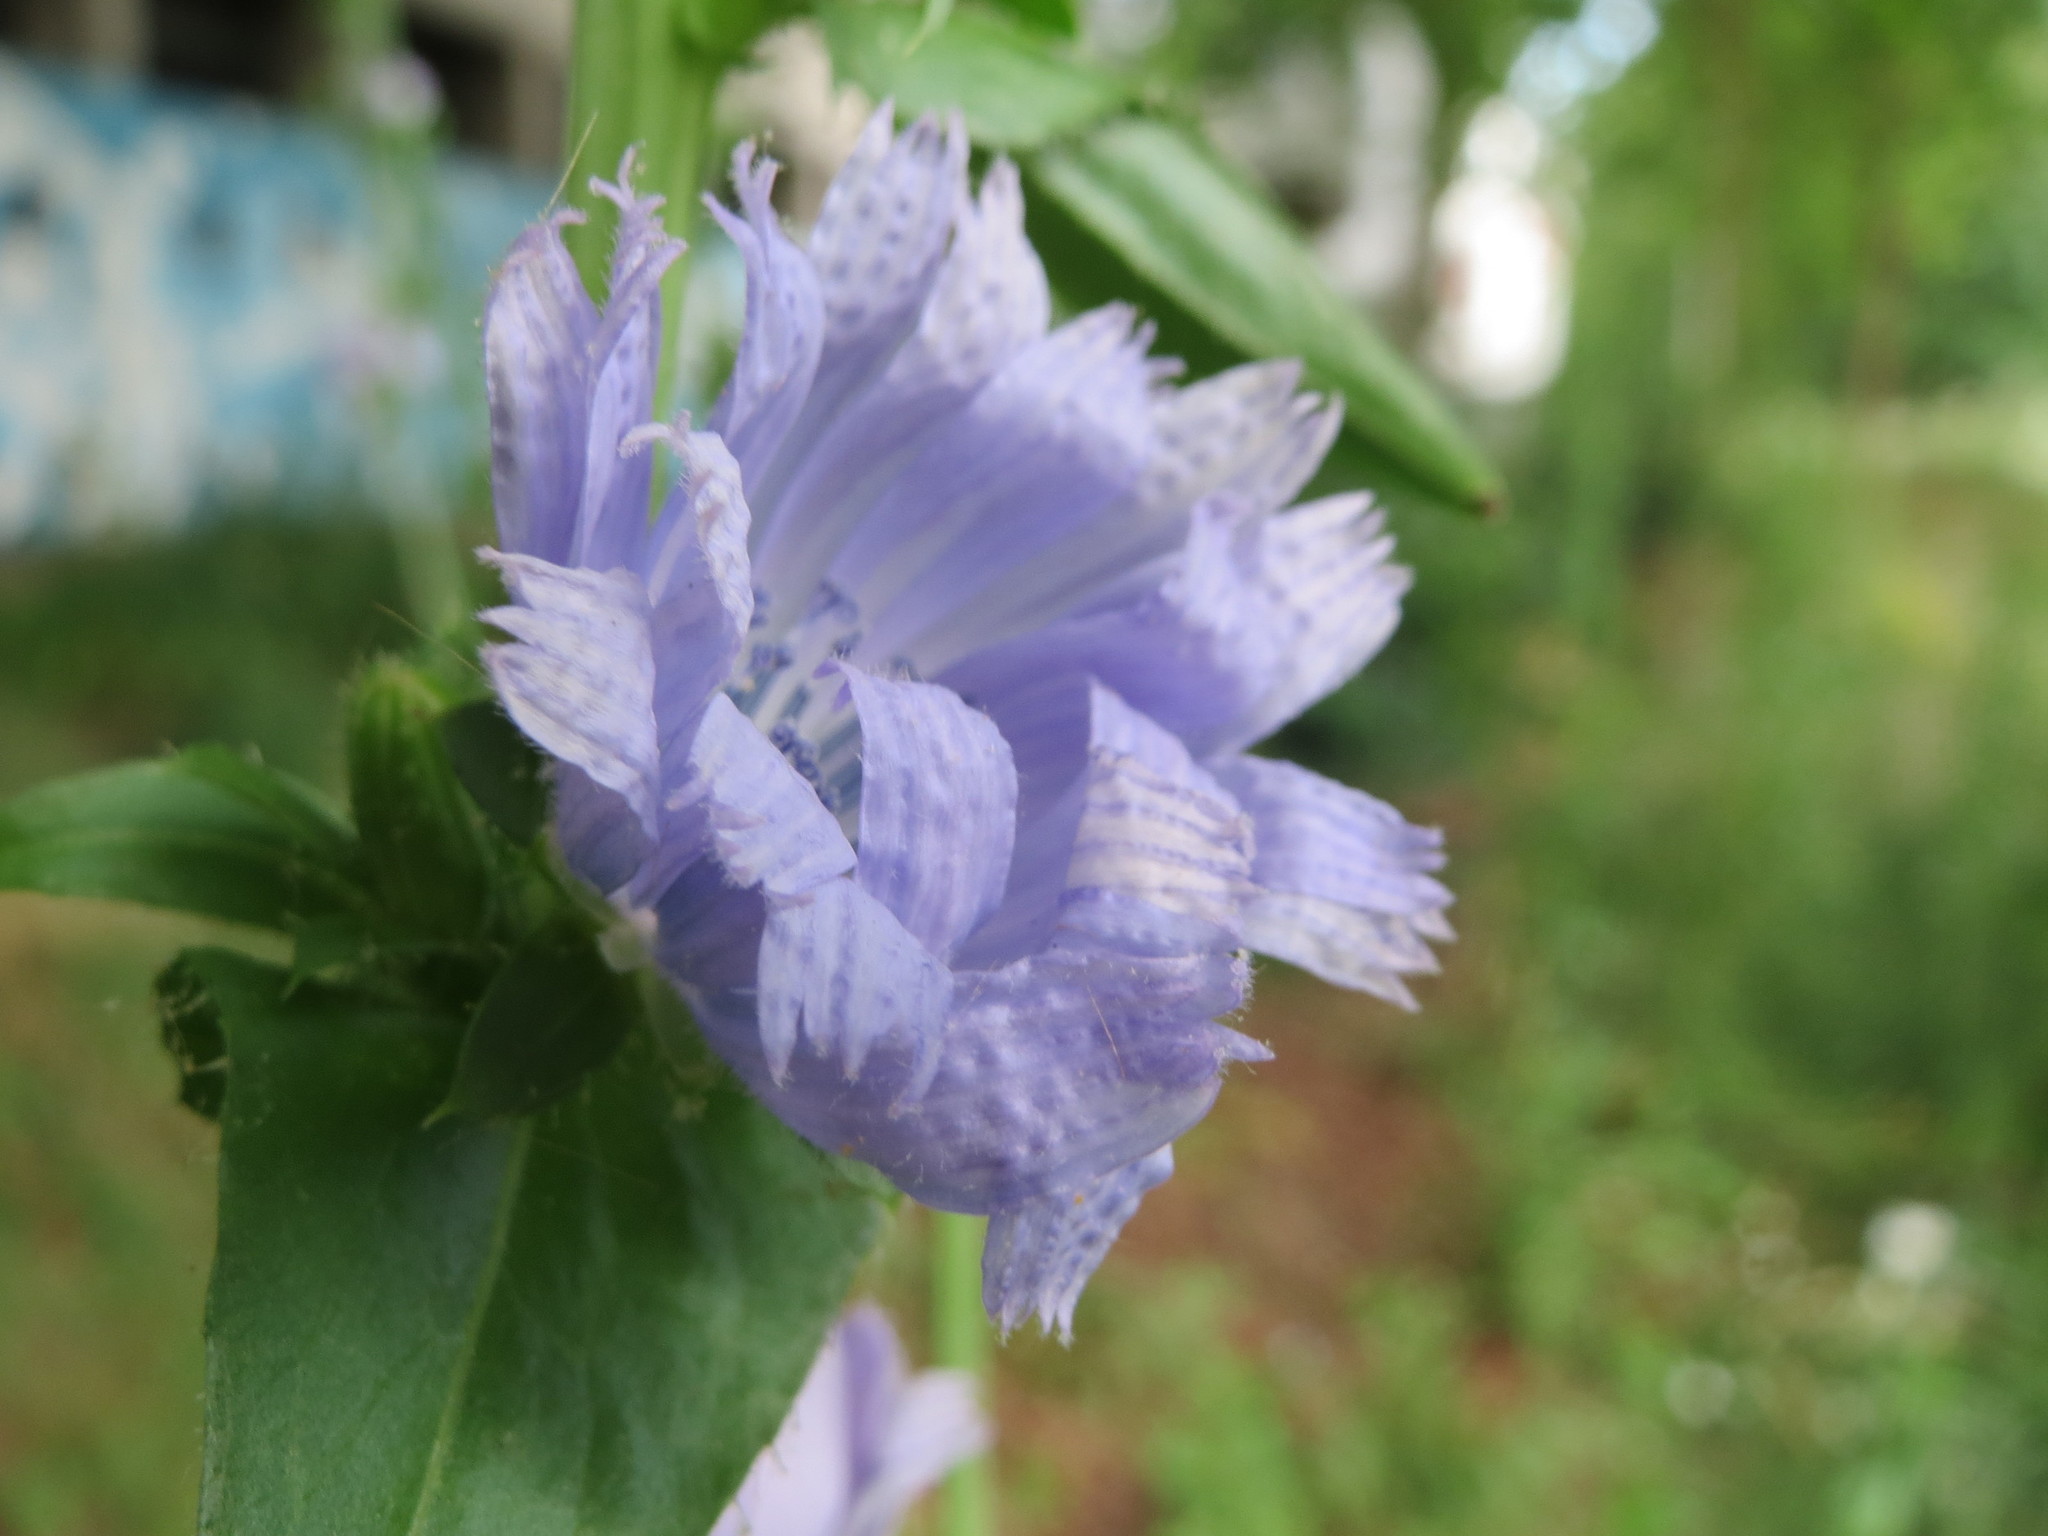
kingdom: Plantae
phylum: Tracheophyta
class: Magnoliopsida
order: Asterales
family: Asteraceae
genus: Cichorium
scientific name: Cichorium intybus
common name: Chicory
